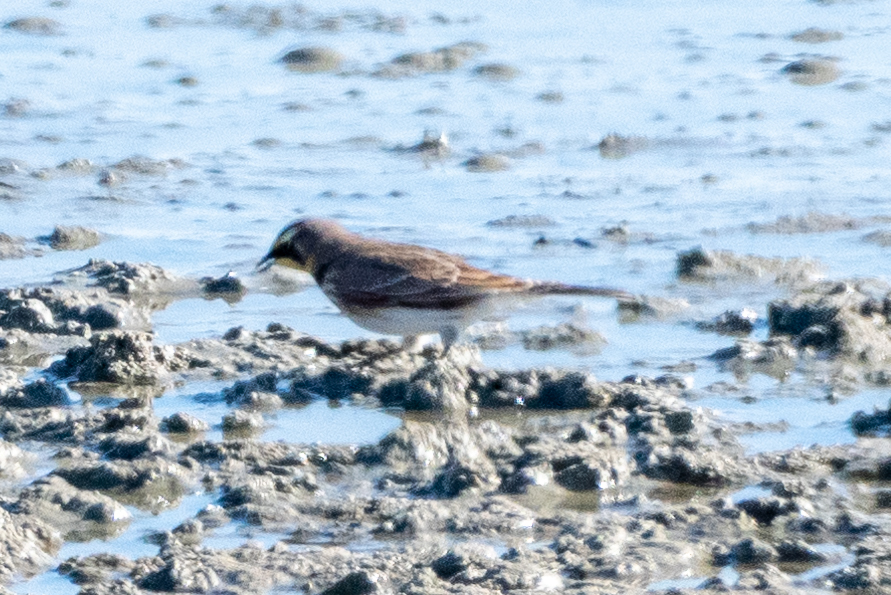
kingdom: Animalia
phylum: Chordata
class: Aves
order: Passeriformes
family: Alaudidae
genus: Eremophila
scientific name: Eremophila alpestris
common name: Horned lark
